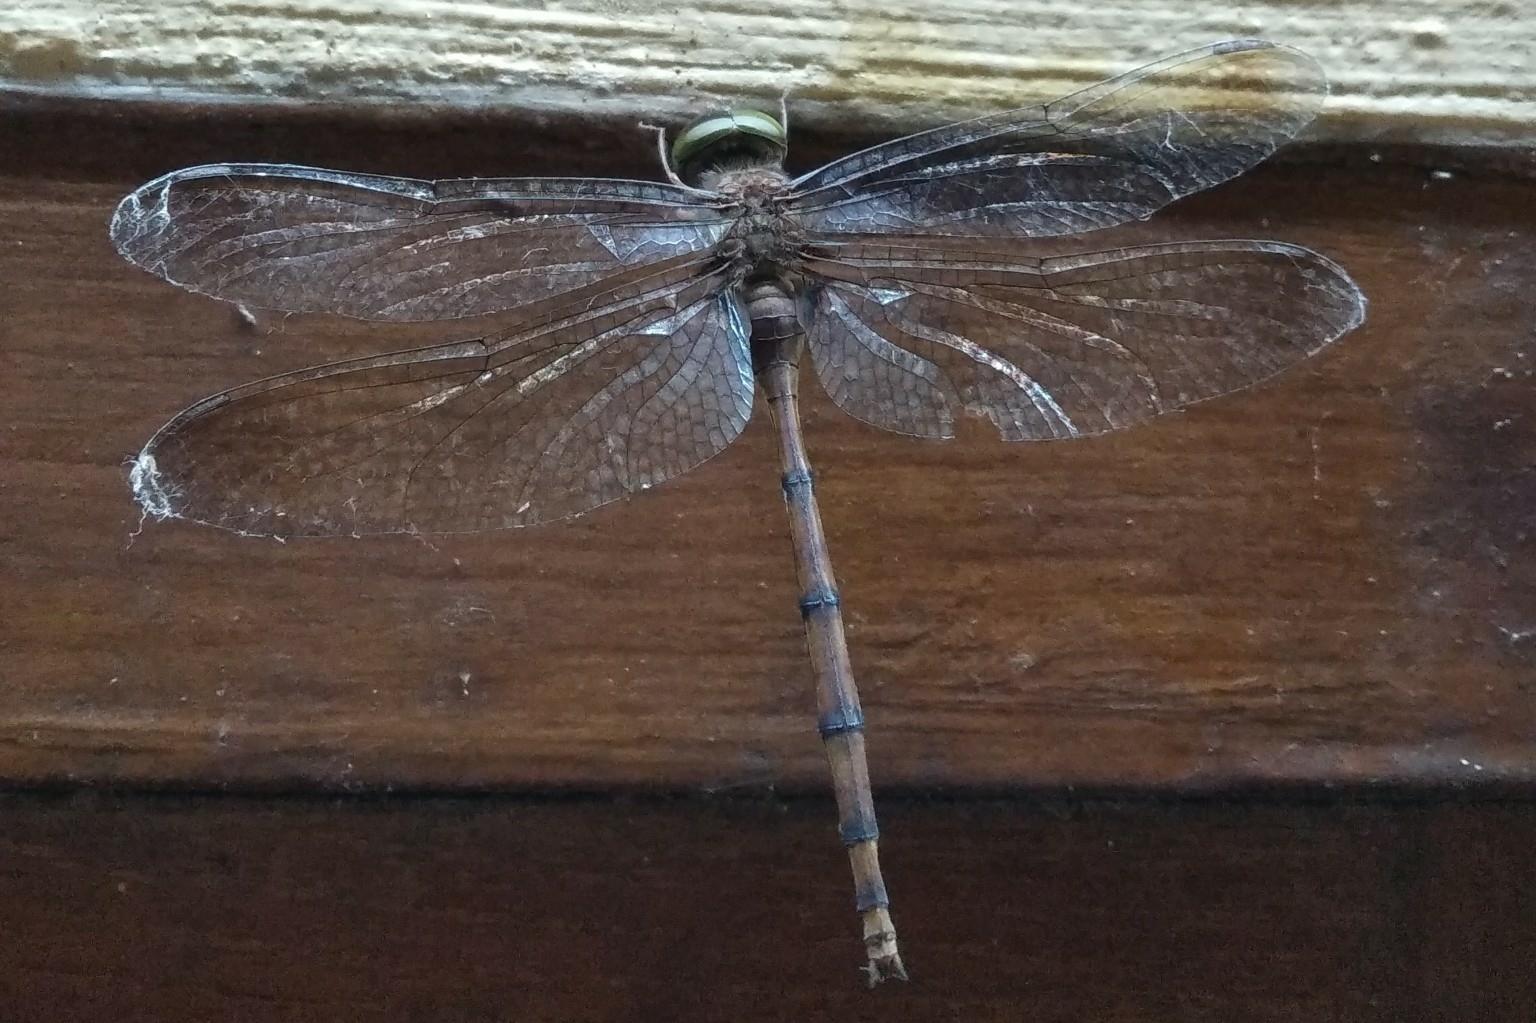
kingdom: Animalia
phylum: Arthropoda
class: Insecta
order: Odonata
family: Libellulidae
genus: Zyxomma
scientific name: Zyxomma petiolatum
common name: Dingy dusk-darter
